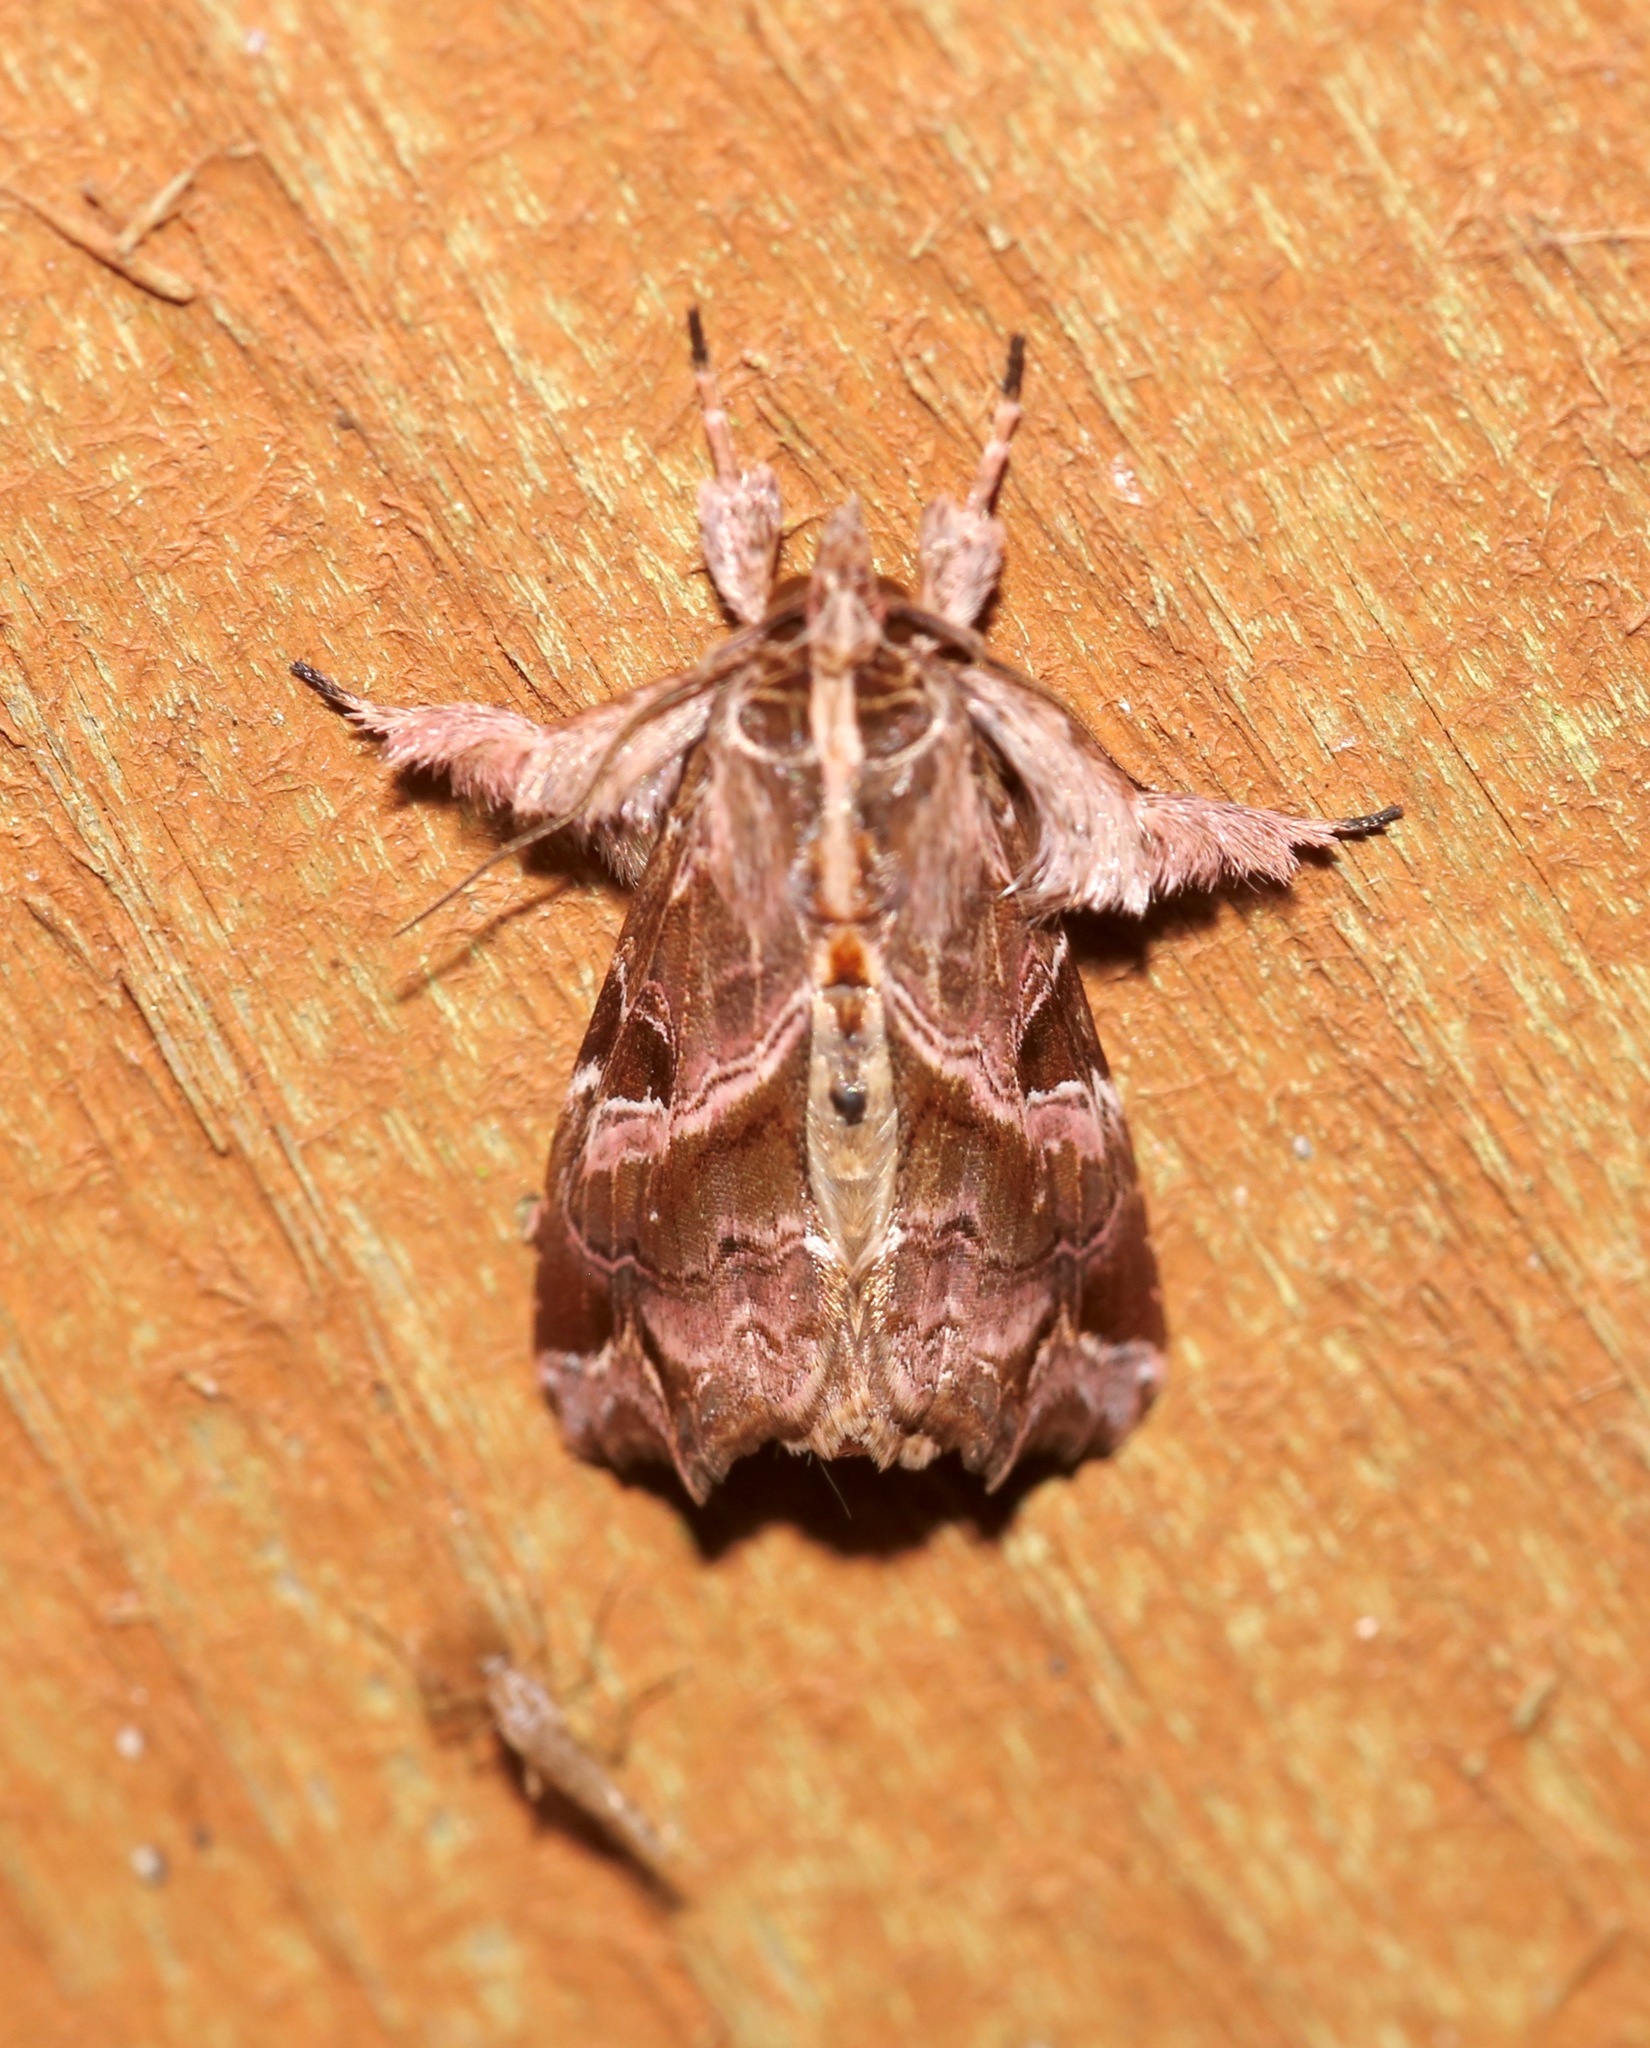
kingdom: Animalia
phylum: Arthropoda
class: Insecta
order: Lepidoptera
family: Noctuidae
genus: Callopistria
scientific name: Callopistria floridensis
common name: Florida fern moth
